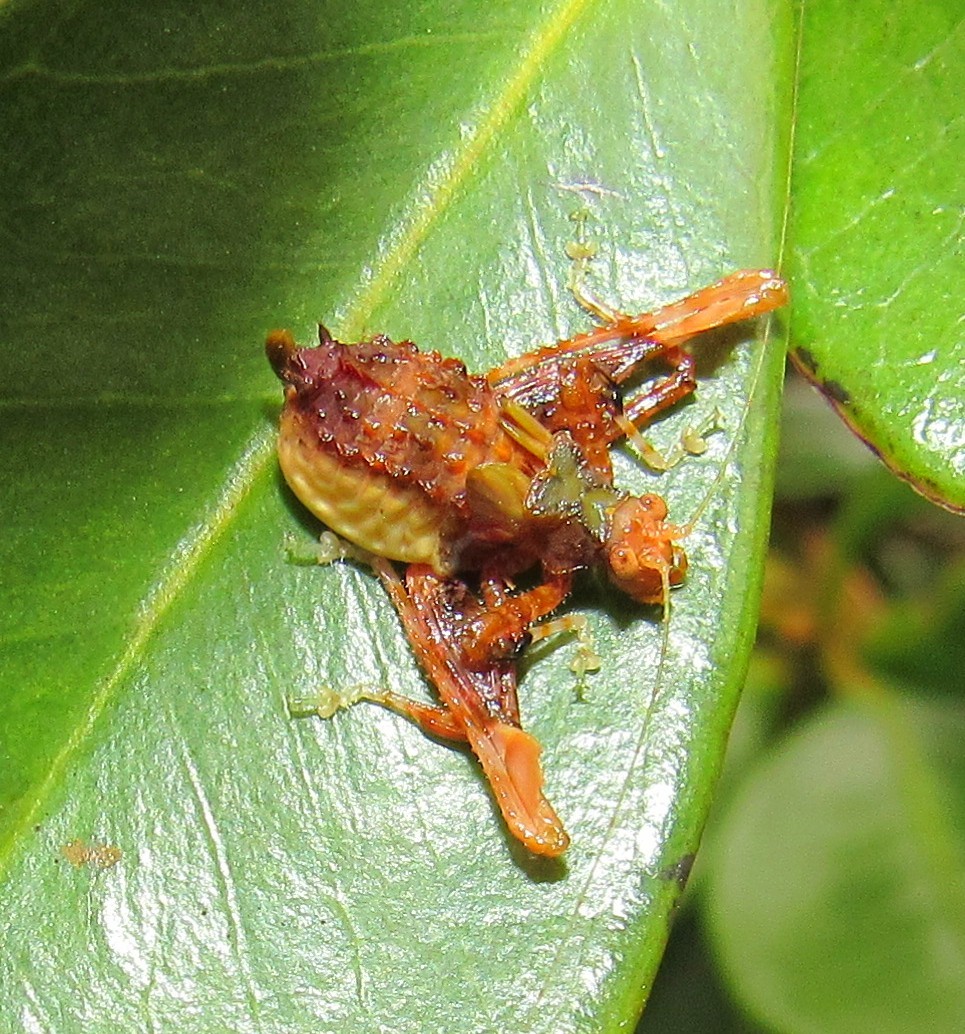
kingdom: Animalia
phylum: Arthropoda
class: Insecta
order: Orthoptera
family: Tettigoniidae
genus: Pycnopalpa
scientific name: Pycnopalpa bicordata
